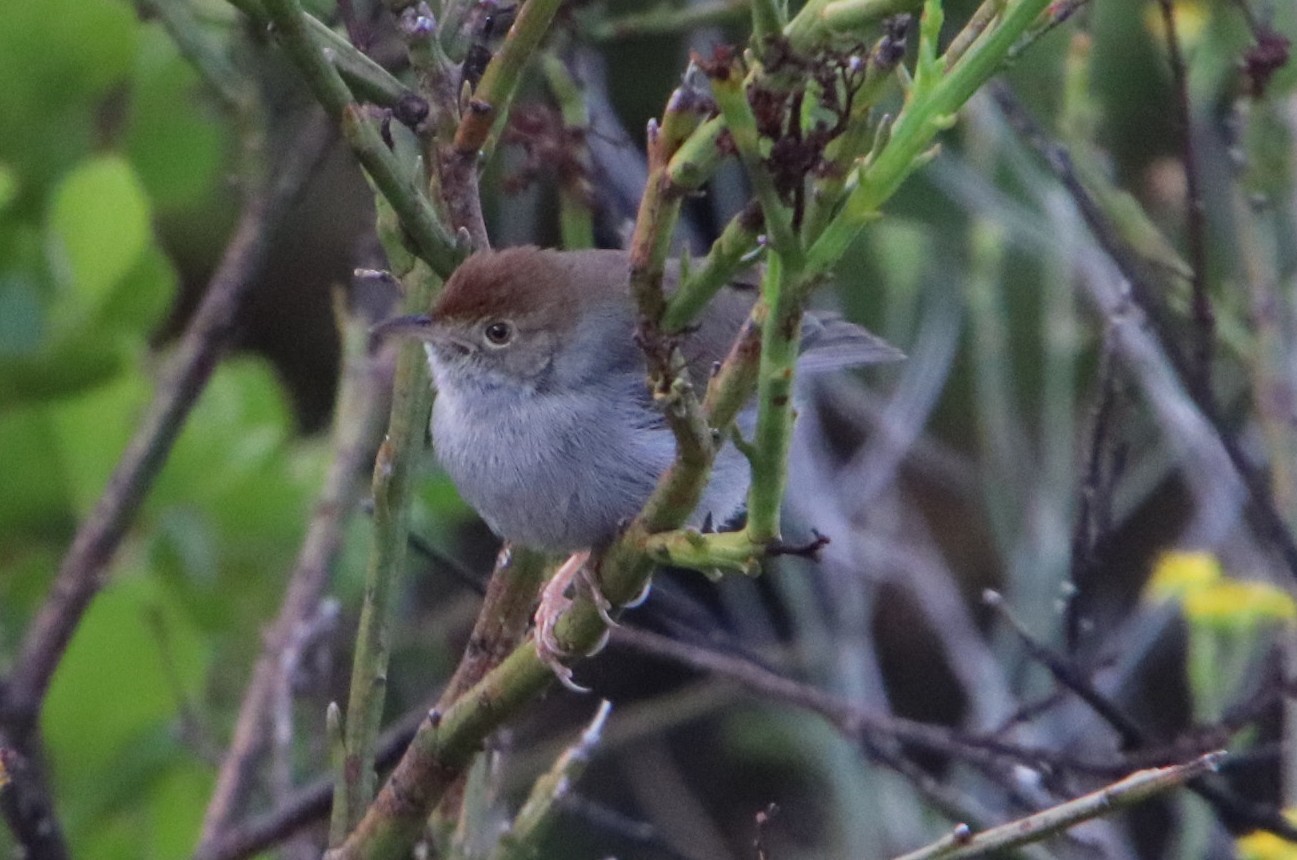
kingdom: Animalia
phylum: Chordata
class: Aves
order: Passeriformes
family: Cisticolidae
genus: Cisticola
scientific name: Cisticola fulvicapilla
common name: Neddicky
